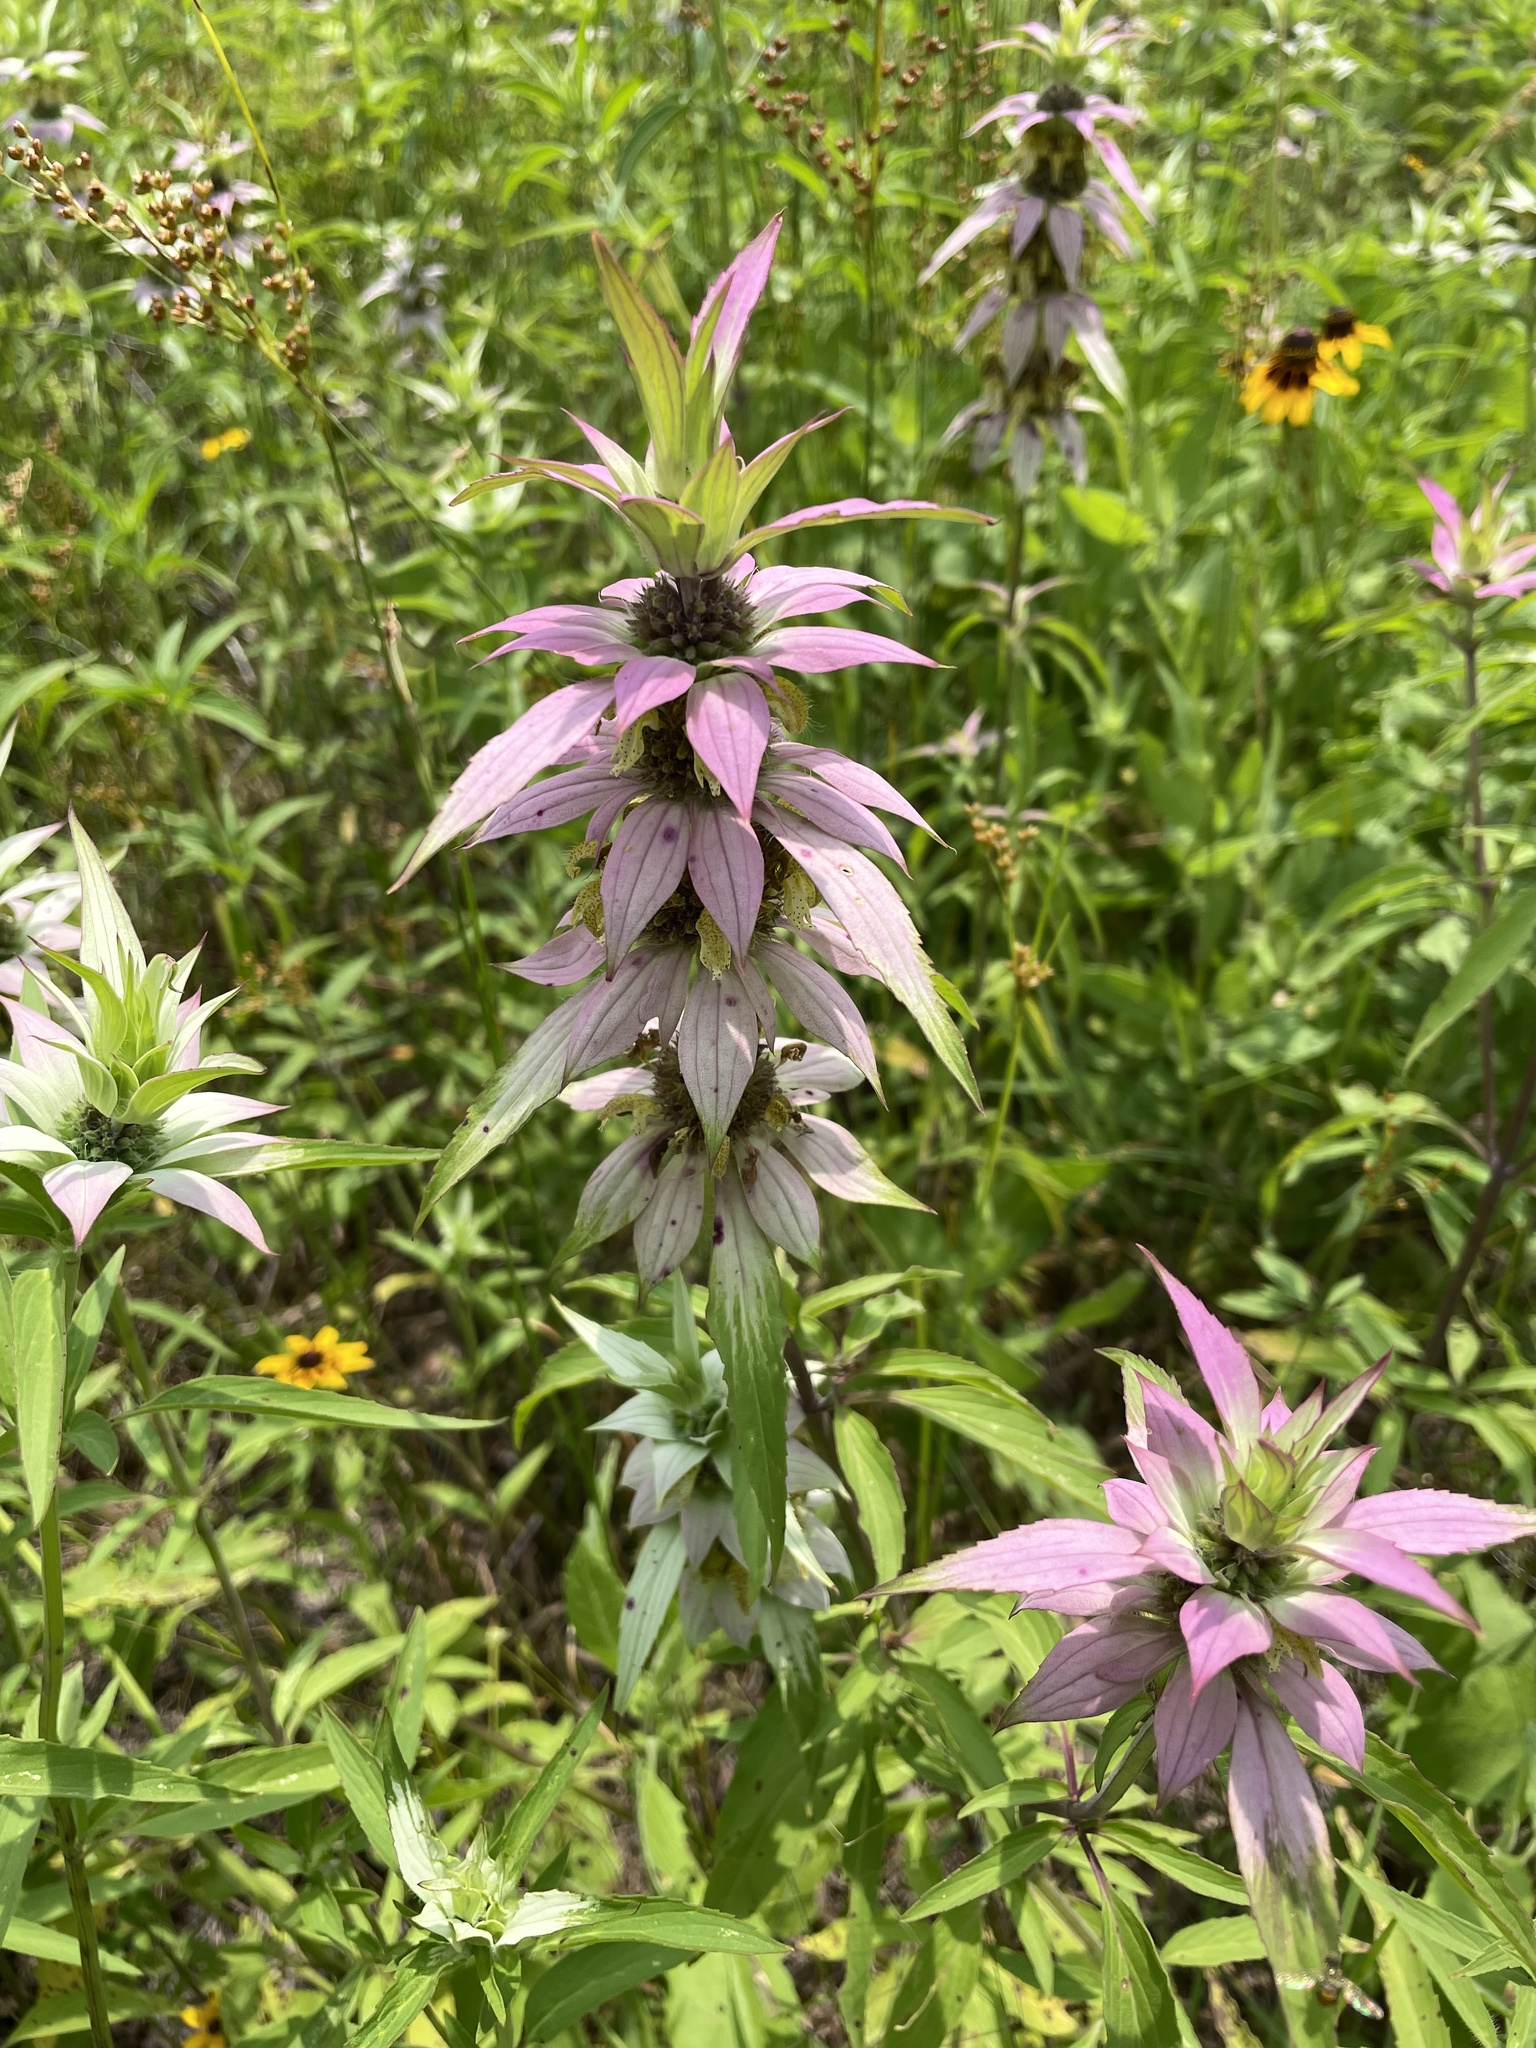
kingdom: Plantae
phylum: Tracheophyta
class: Magnoliopsida
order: Lamiales
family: Lamiaceae
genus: Monarda
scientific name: Monarda punctata
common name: Dotted monarda
